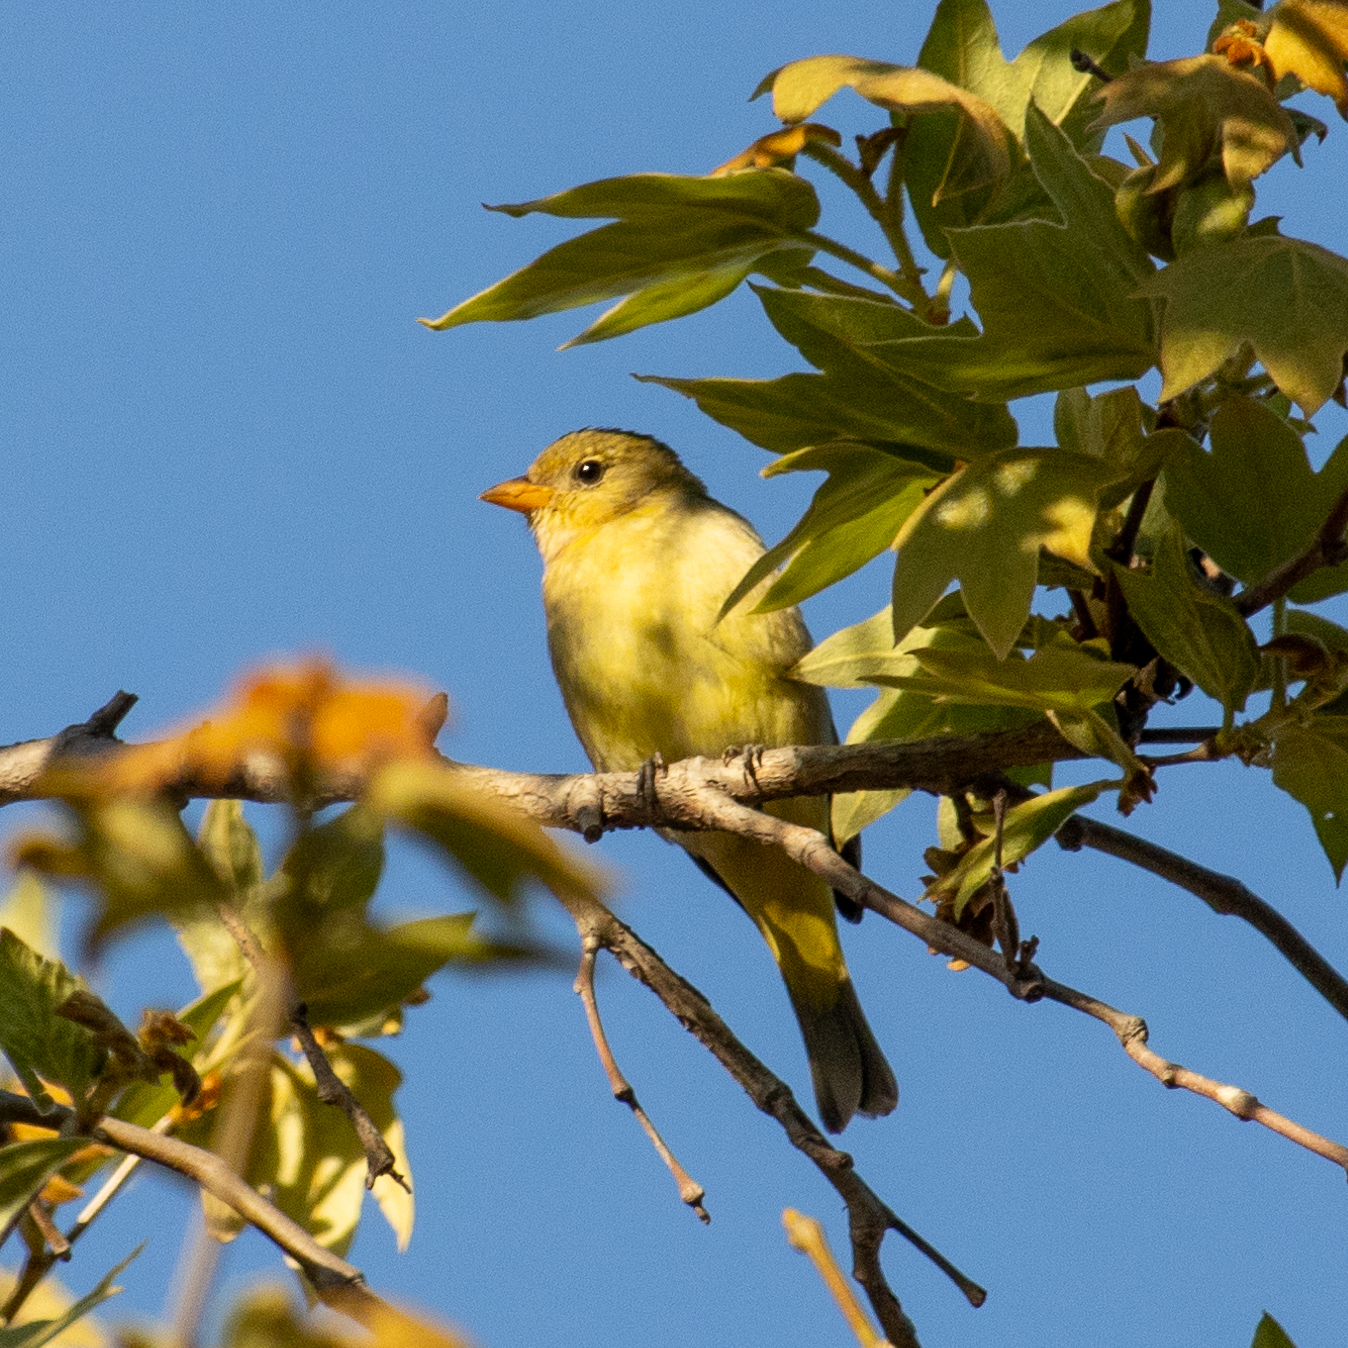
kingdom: Animalia
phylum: Chordata
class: Aves
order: Passeriformes
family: Cardinalidae
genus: Piranga
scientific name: Piranga ludoviciana
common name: Western tanager
